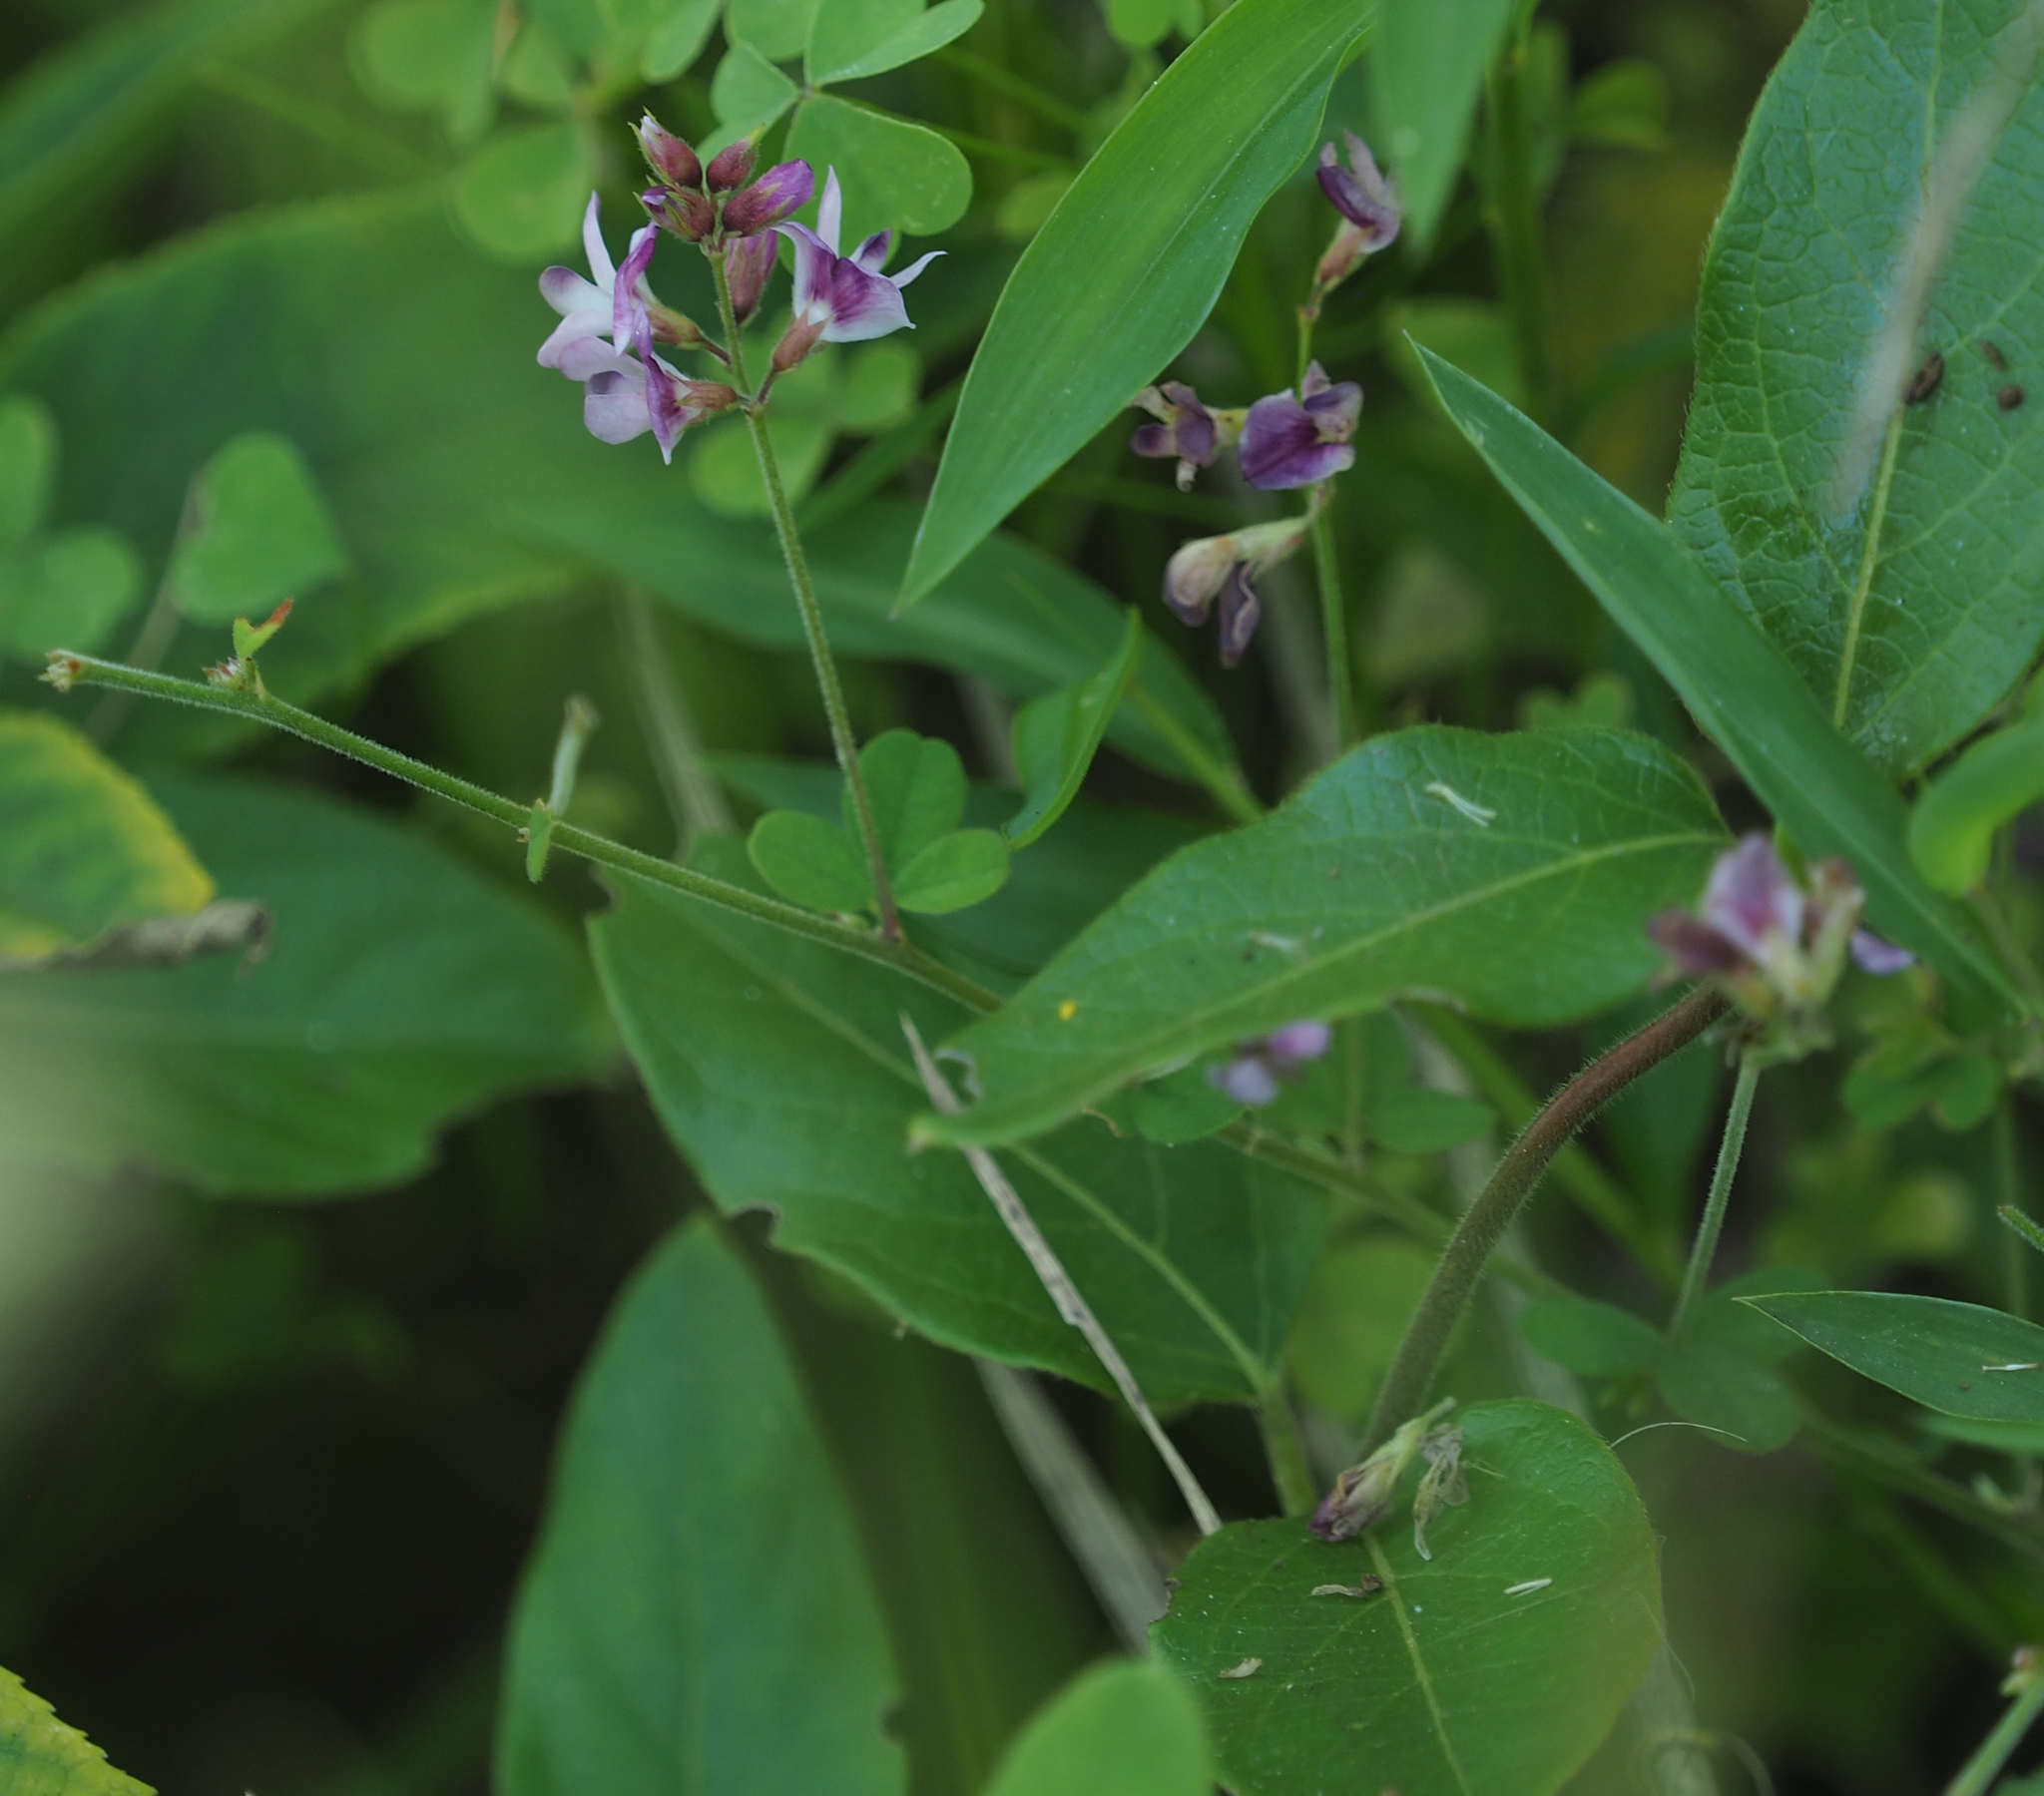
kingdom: Plantae
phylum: Tracheophyta
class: Magnoliopsida
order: Fabales
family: Fabaceae
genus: Lespedeza
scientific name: Lespedeza procumbens
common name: Downy trailing bush-clover
